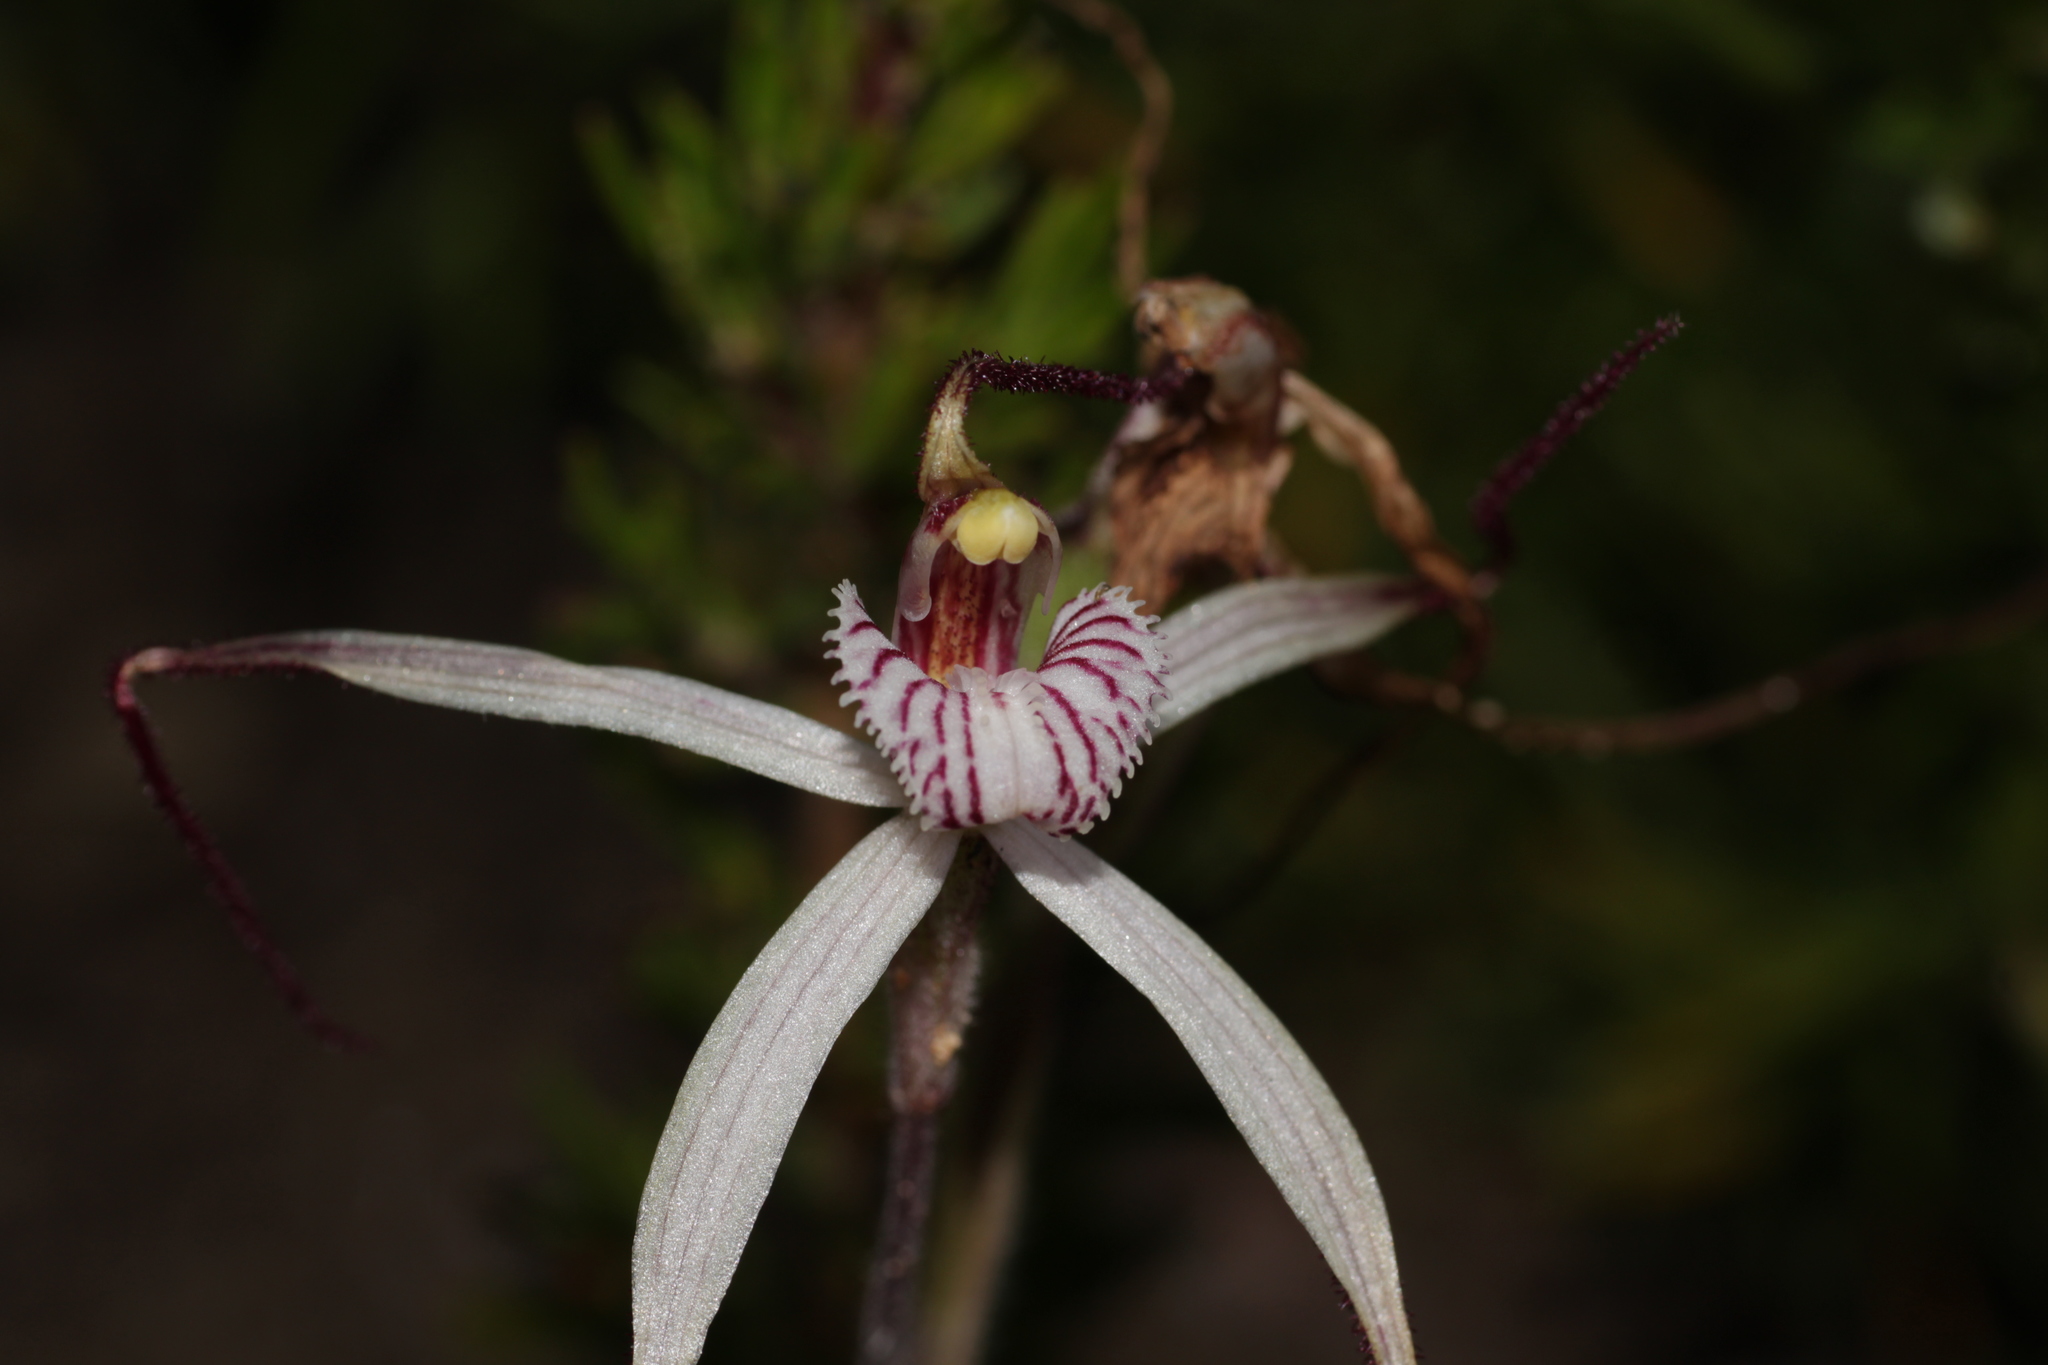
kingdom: Plantae
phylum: Tracheophyta
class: Liliopsida
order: Asparagales
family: Orchidaceae
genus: Caladenia
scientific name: Caladenia nobilis
